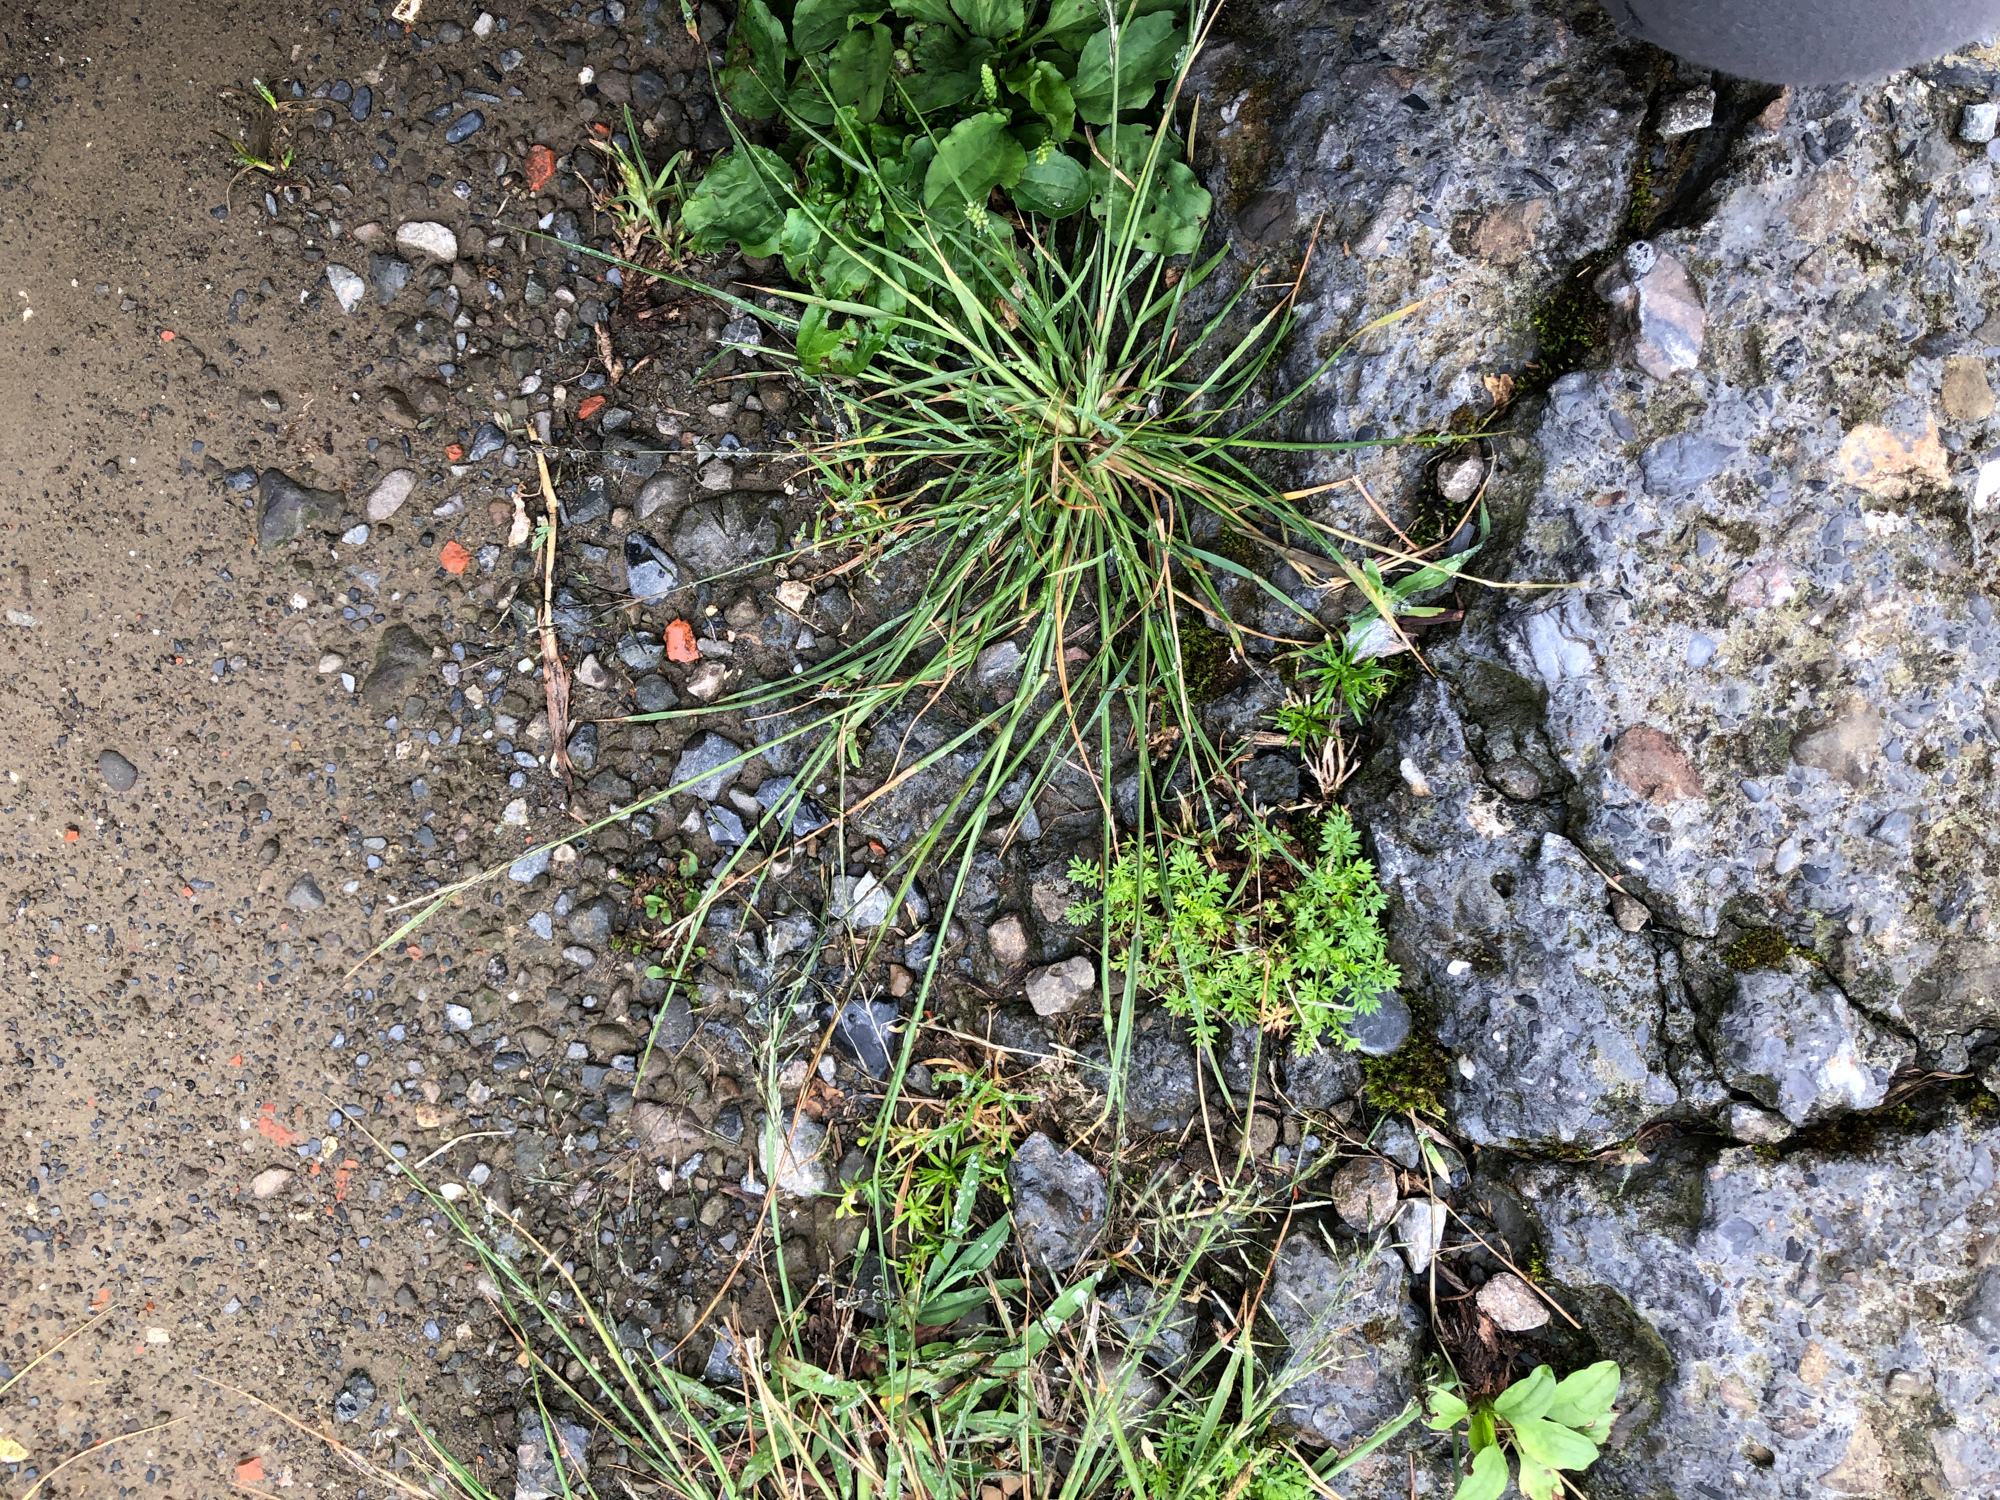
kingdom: Plantae
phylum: Tracheophyta
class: Liliopsida
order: Poales
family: Poaceae
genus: Eragrostis
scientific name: Eragrostis ferruginea
